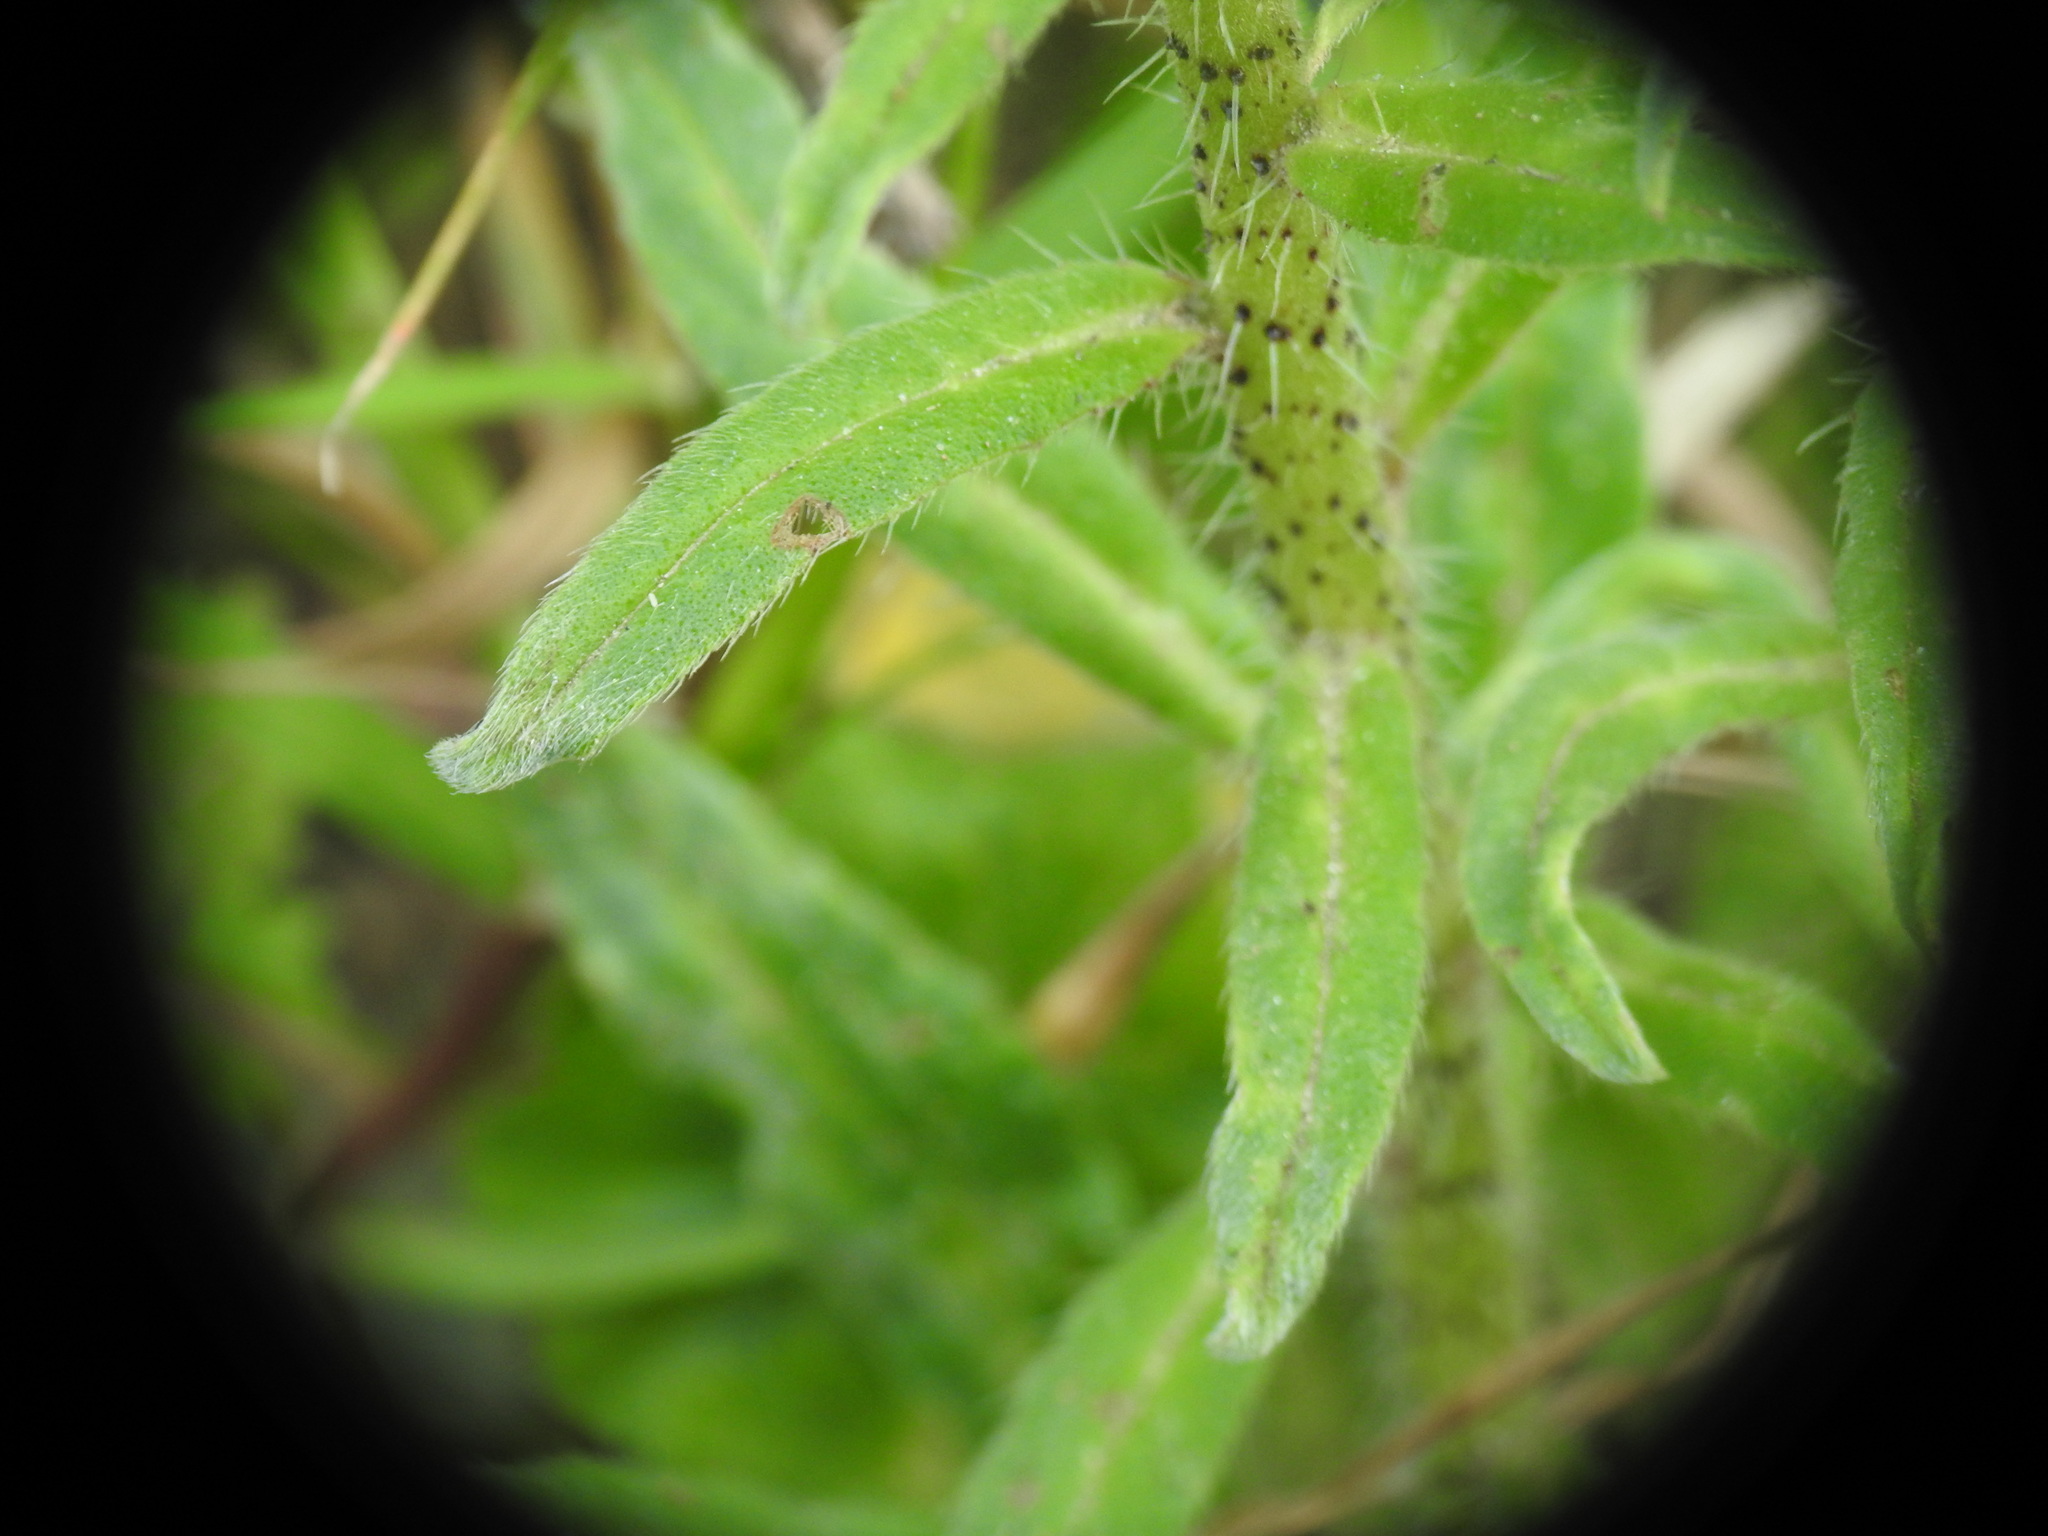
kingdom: Plantae
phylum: Tracheophyta
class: Magnoliopsida
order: Boraginales
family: Boraginaceae
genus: Echium
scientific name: Echium creticum
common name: Cretan viper's bugloss
